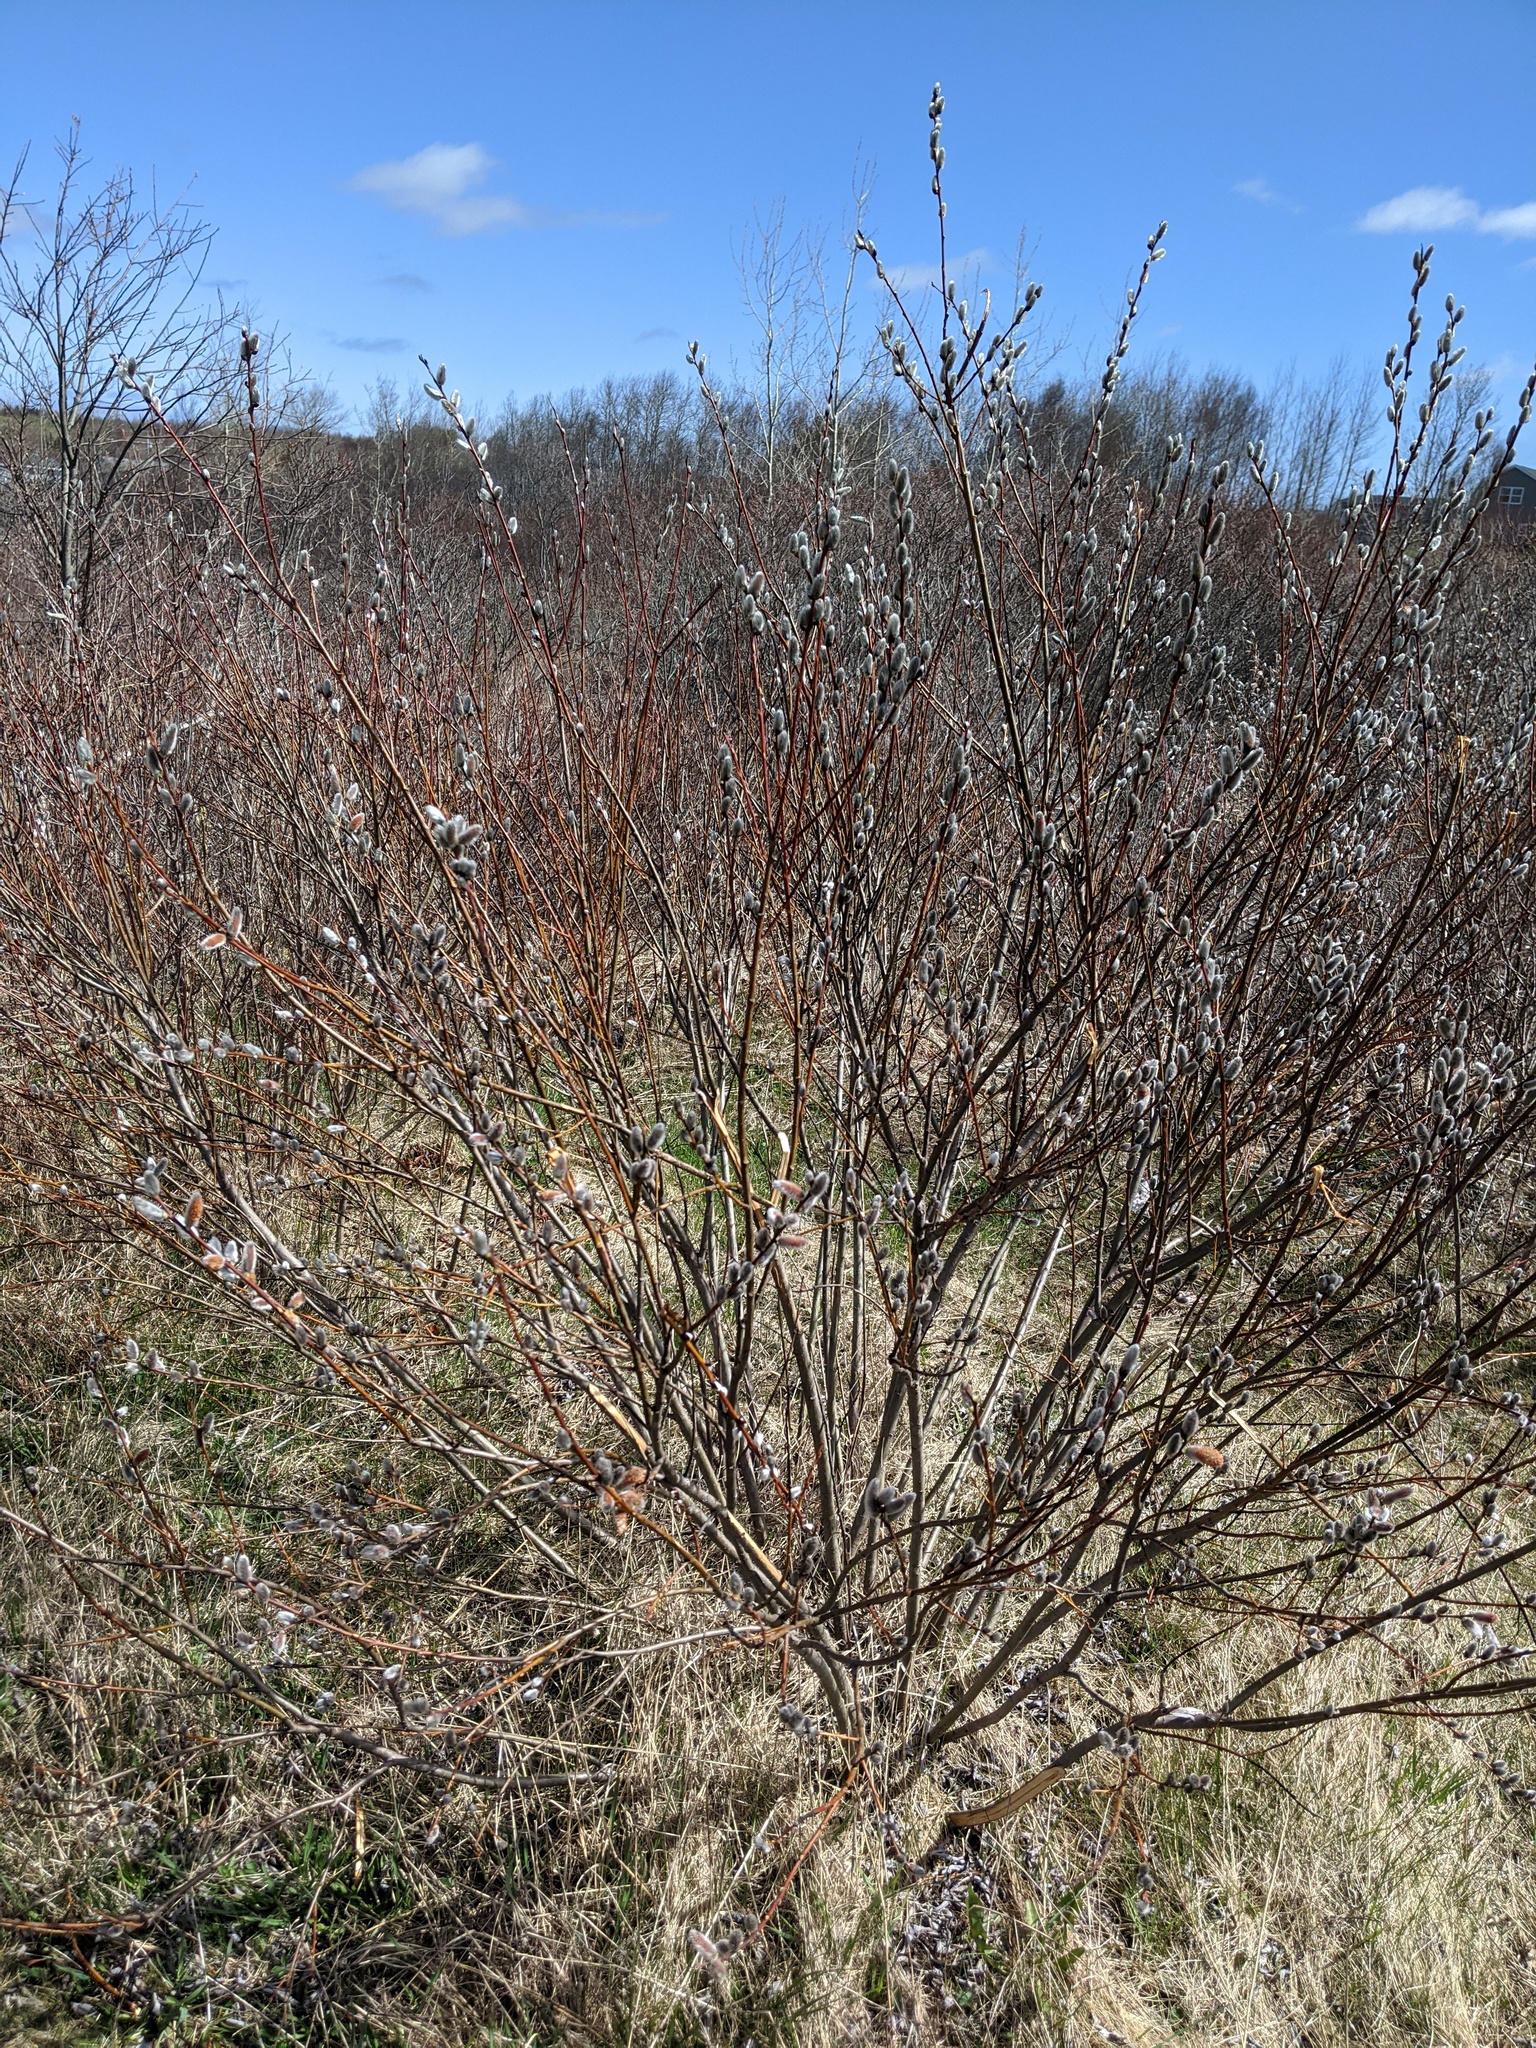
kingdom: Plantae
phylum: Tracheophyta
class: Magnoliopsida
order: Malpighiales
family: Salicaceae
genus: Salix
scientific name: Salix discolor
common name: Glaucous willow
